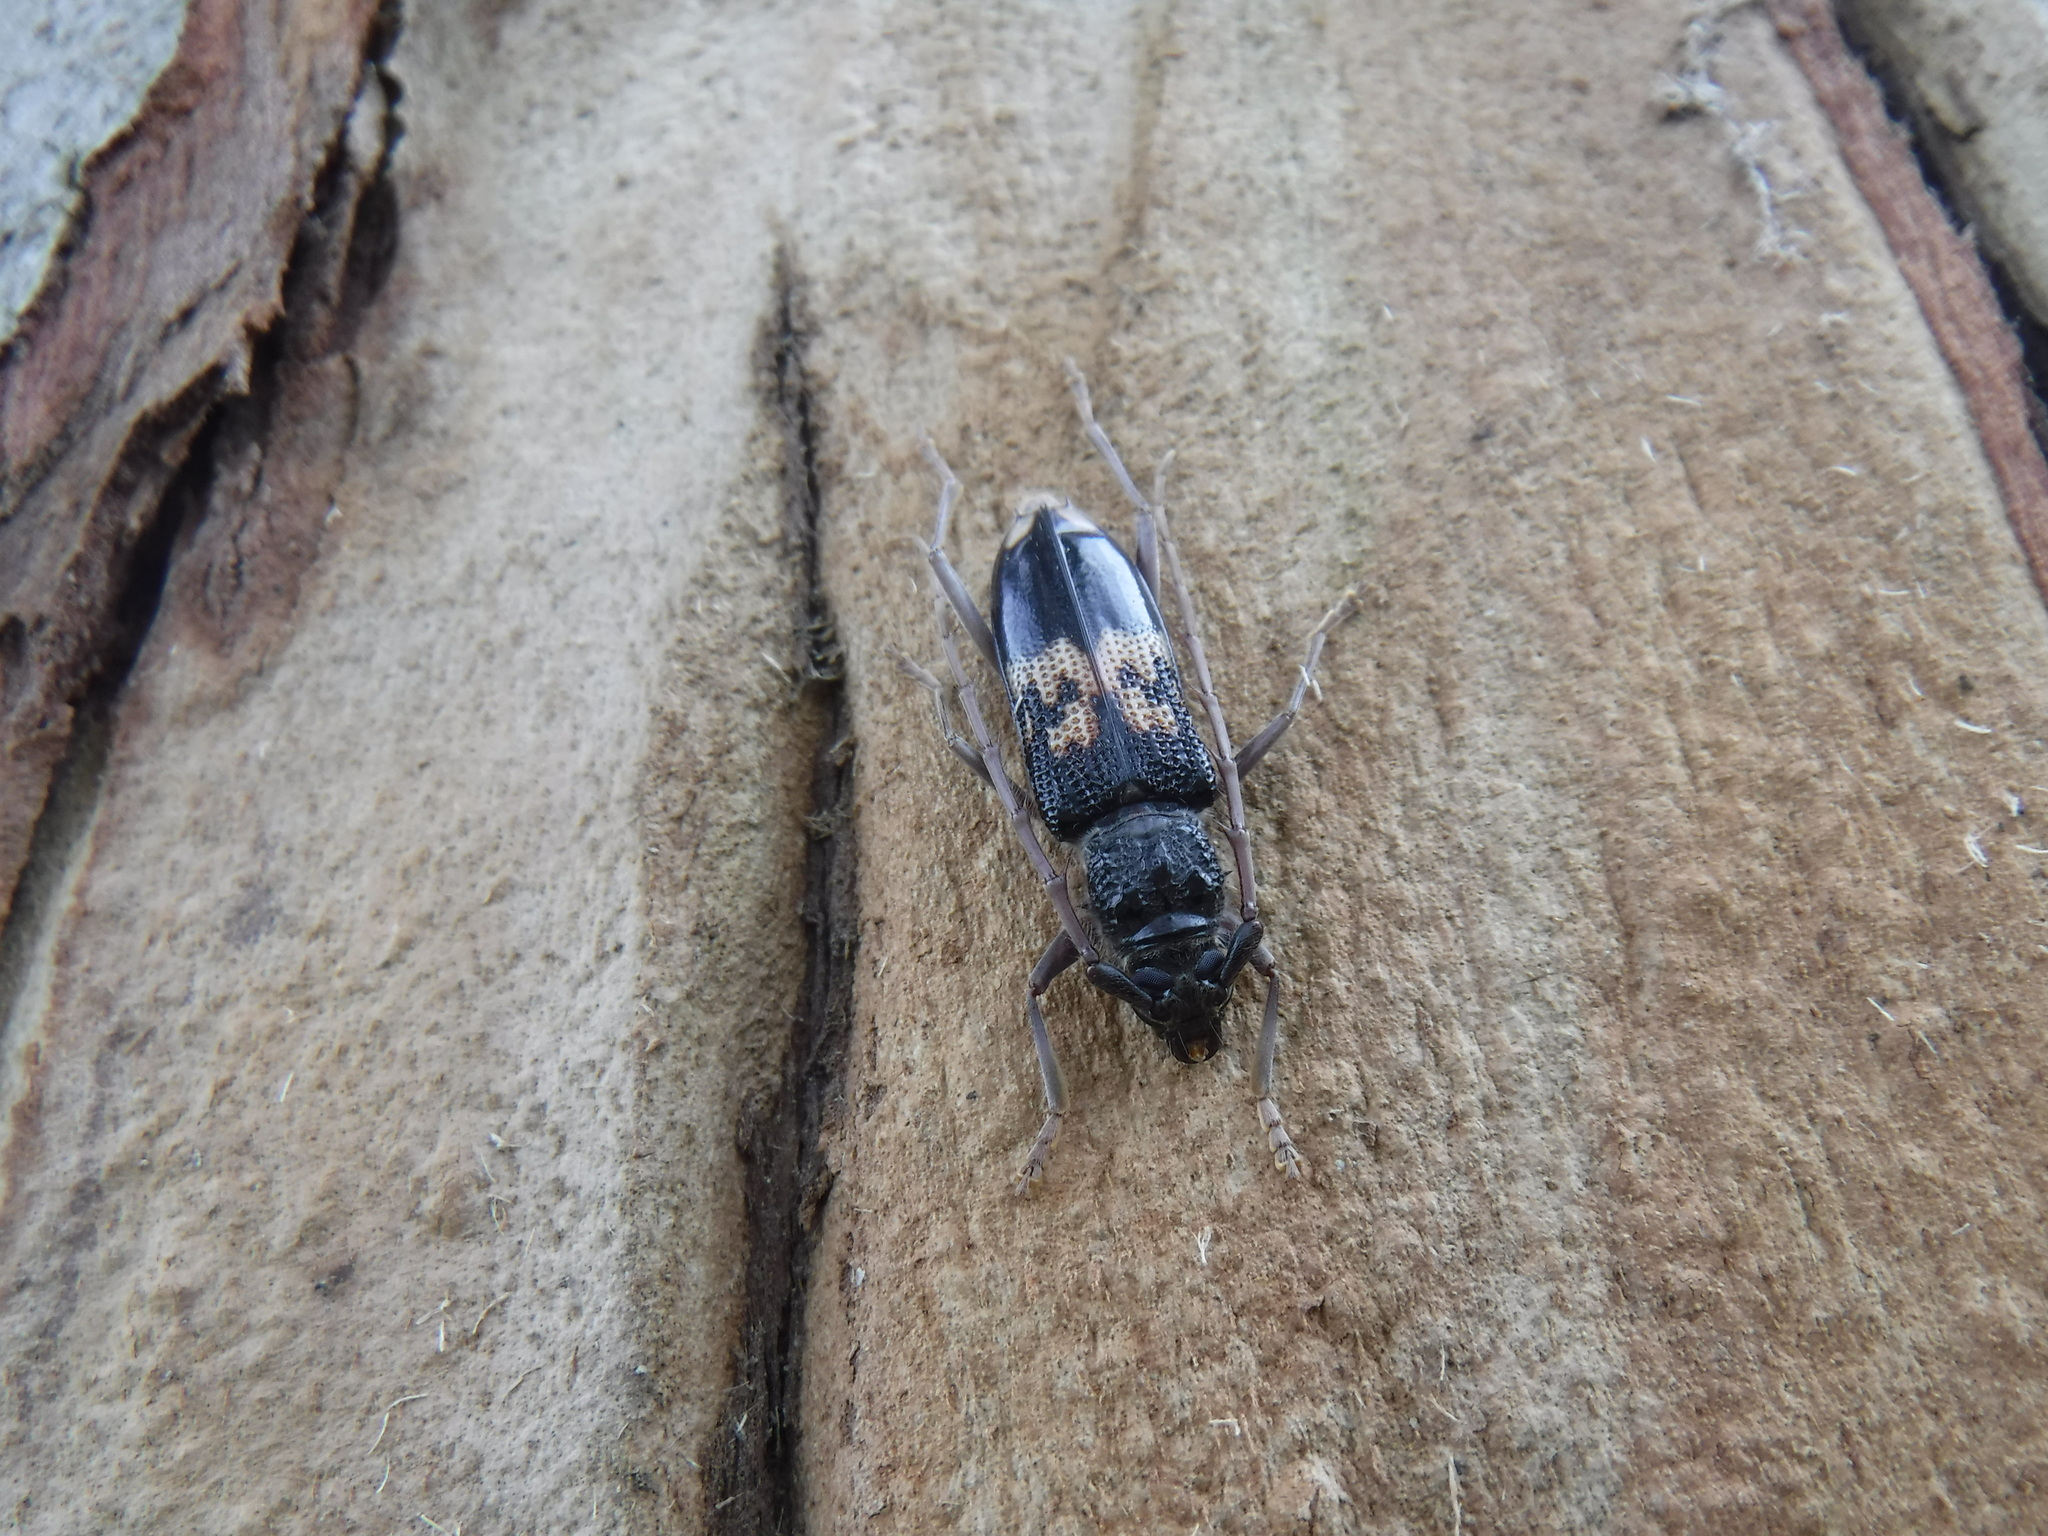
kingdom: Animalia
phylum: Arthropoda
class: Insecta
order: Coleoptera
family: Cerambycidae
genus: Phoracantha
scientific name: Phoracantha semipunctata
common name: Eucalyptus longhorn borer
